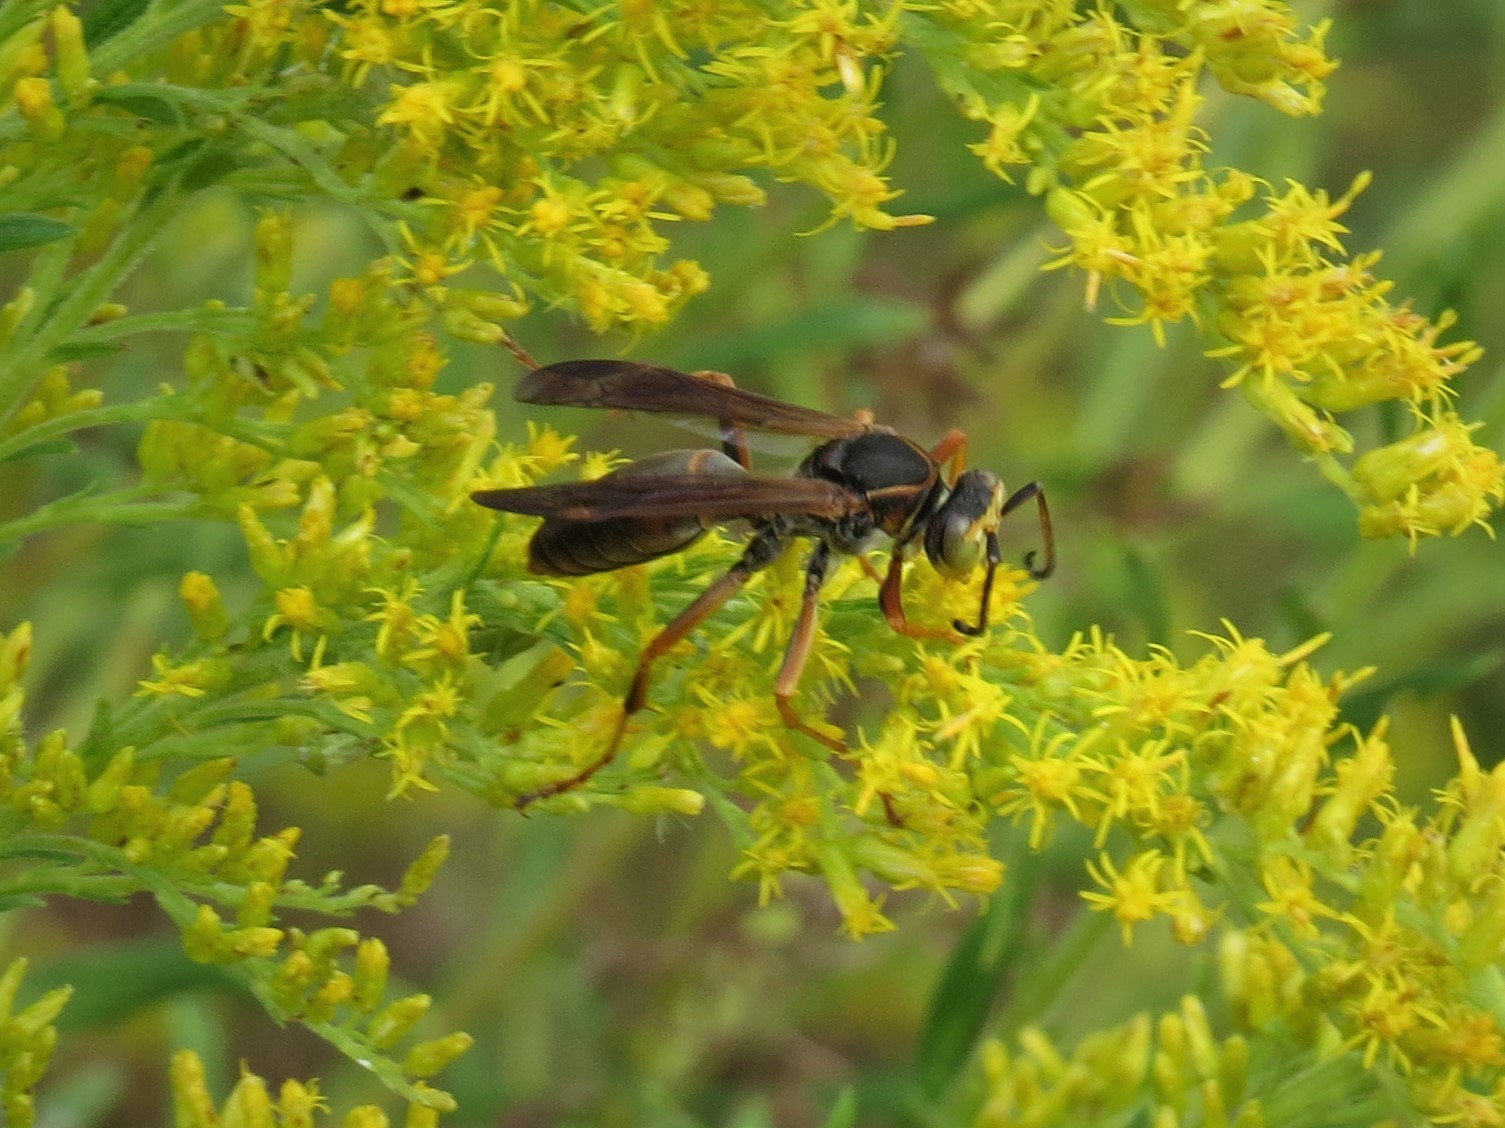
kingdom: Animalia
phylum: Arthropoda
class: Insecta
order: Hymenoptera
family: Eumenidae
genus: Polistes
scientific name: Polistes fuscatus
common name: Dark paper wasp
